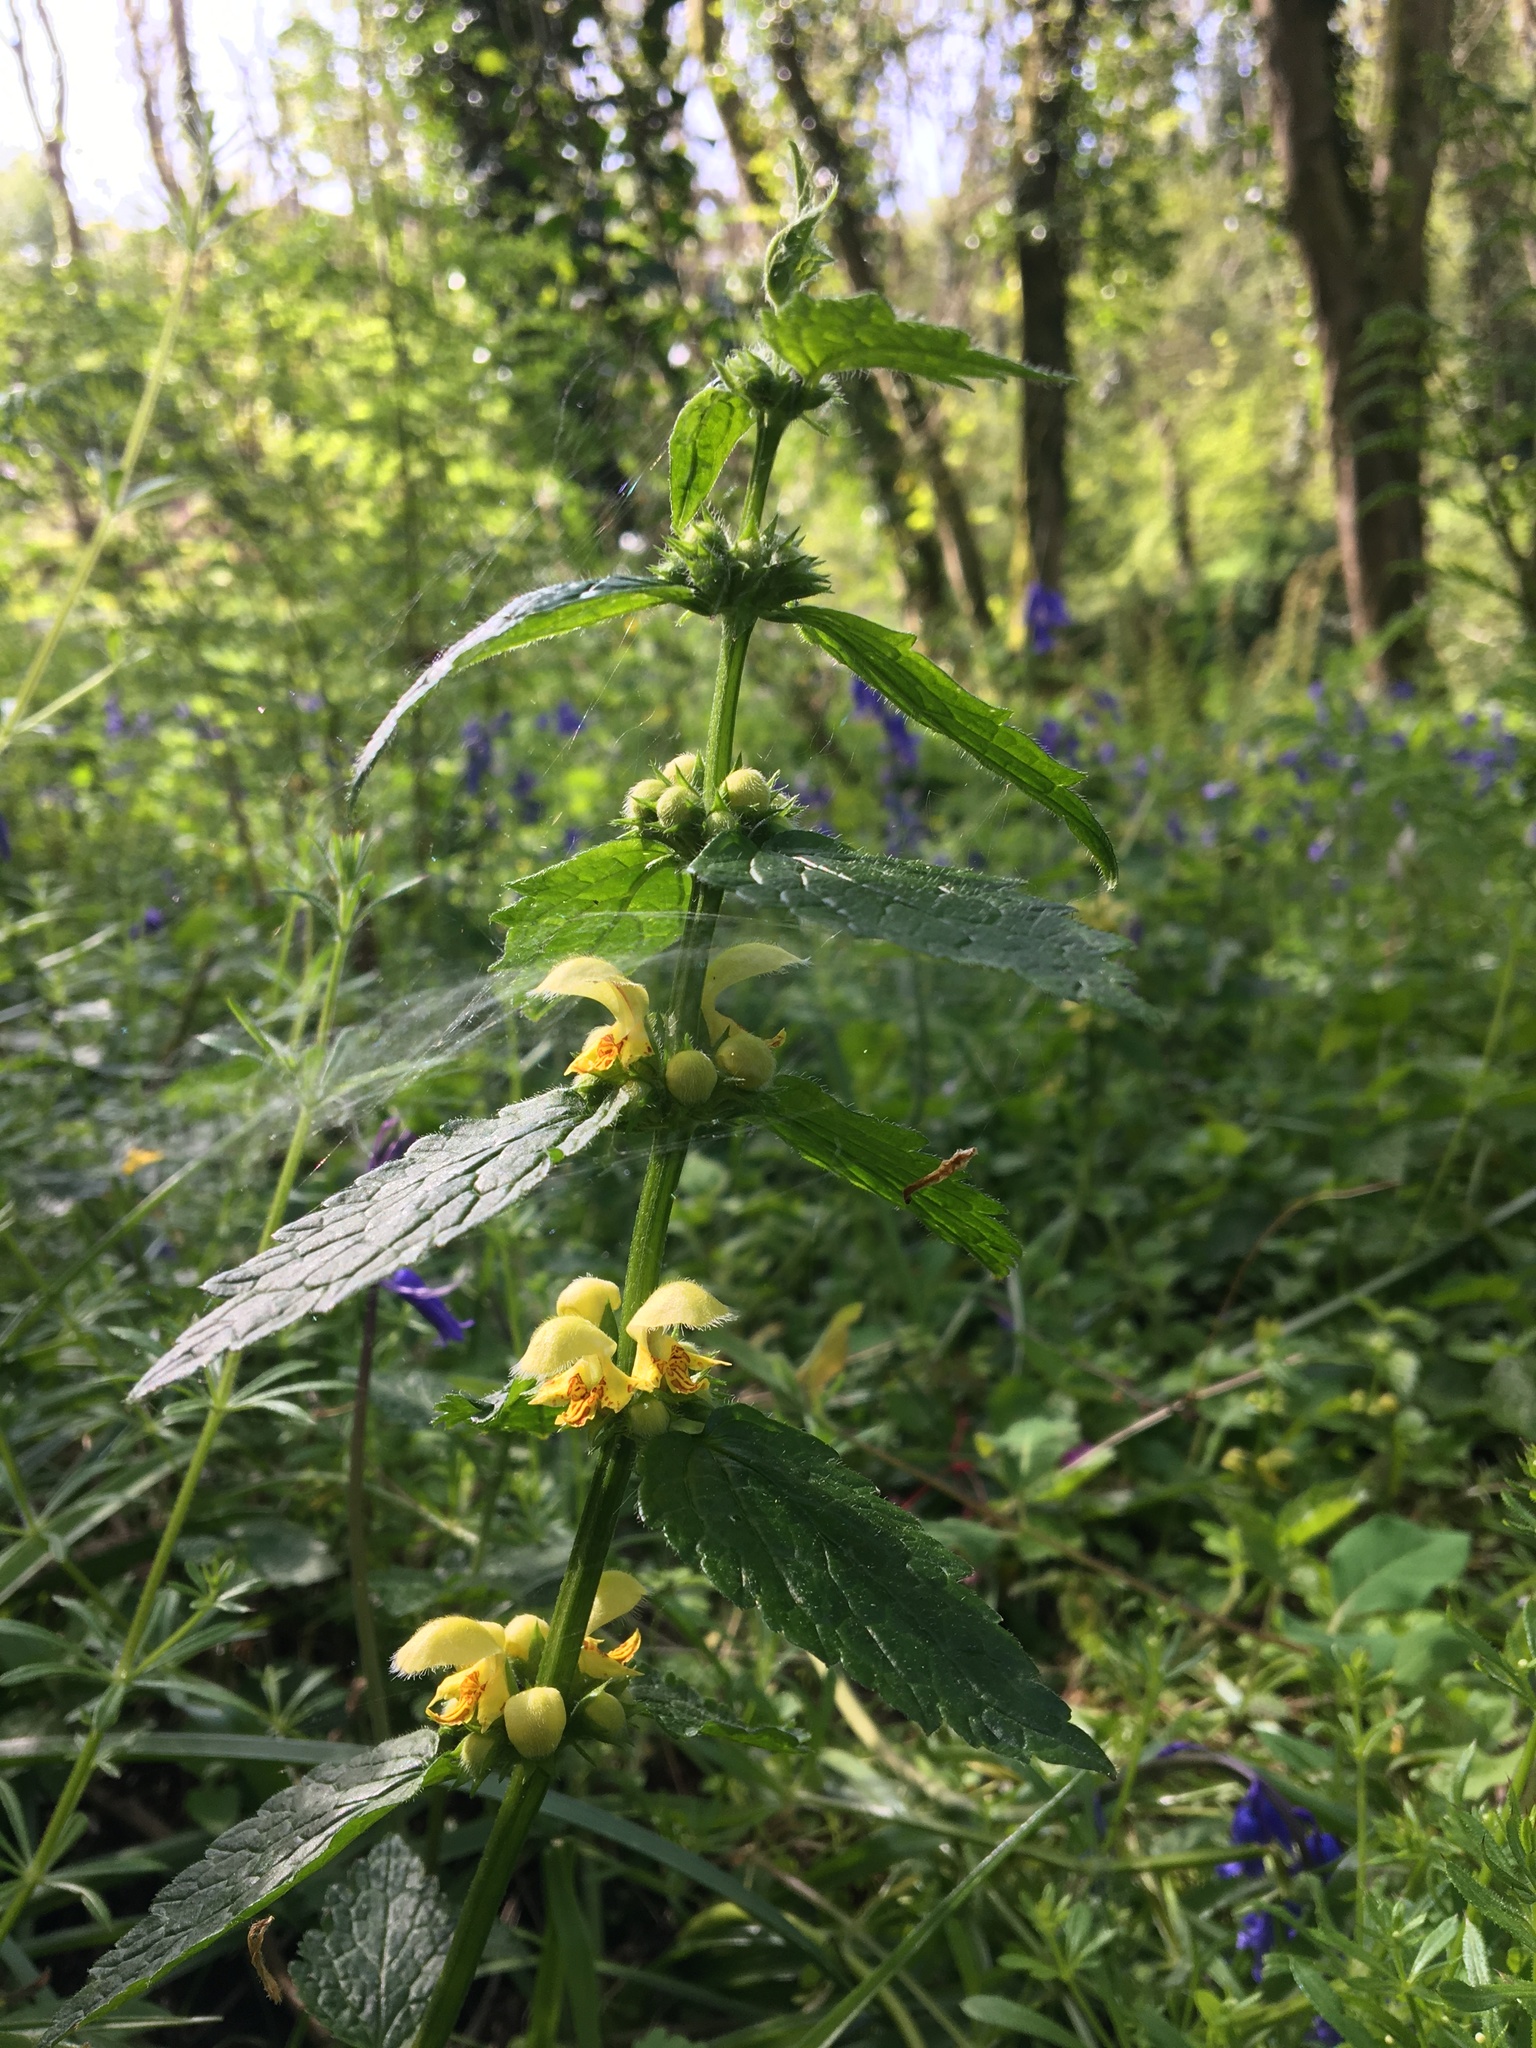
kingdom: Plantae
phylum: Tracheophyta
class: Magnoliopsida
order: Lamiales
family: Lamiaceae
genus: Lamium
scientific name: Lamium galeobdolon
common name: Yellow archangel
